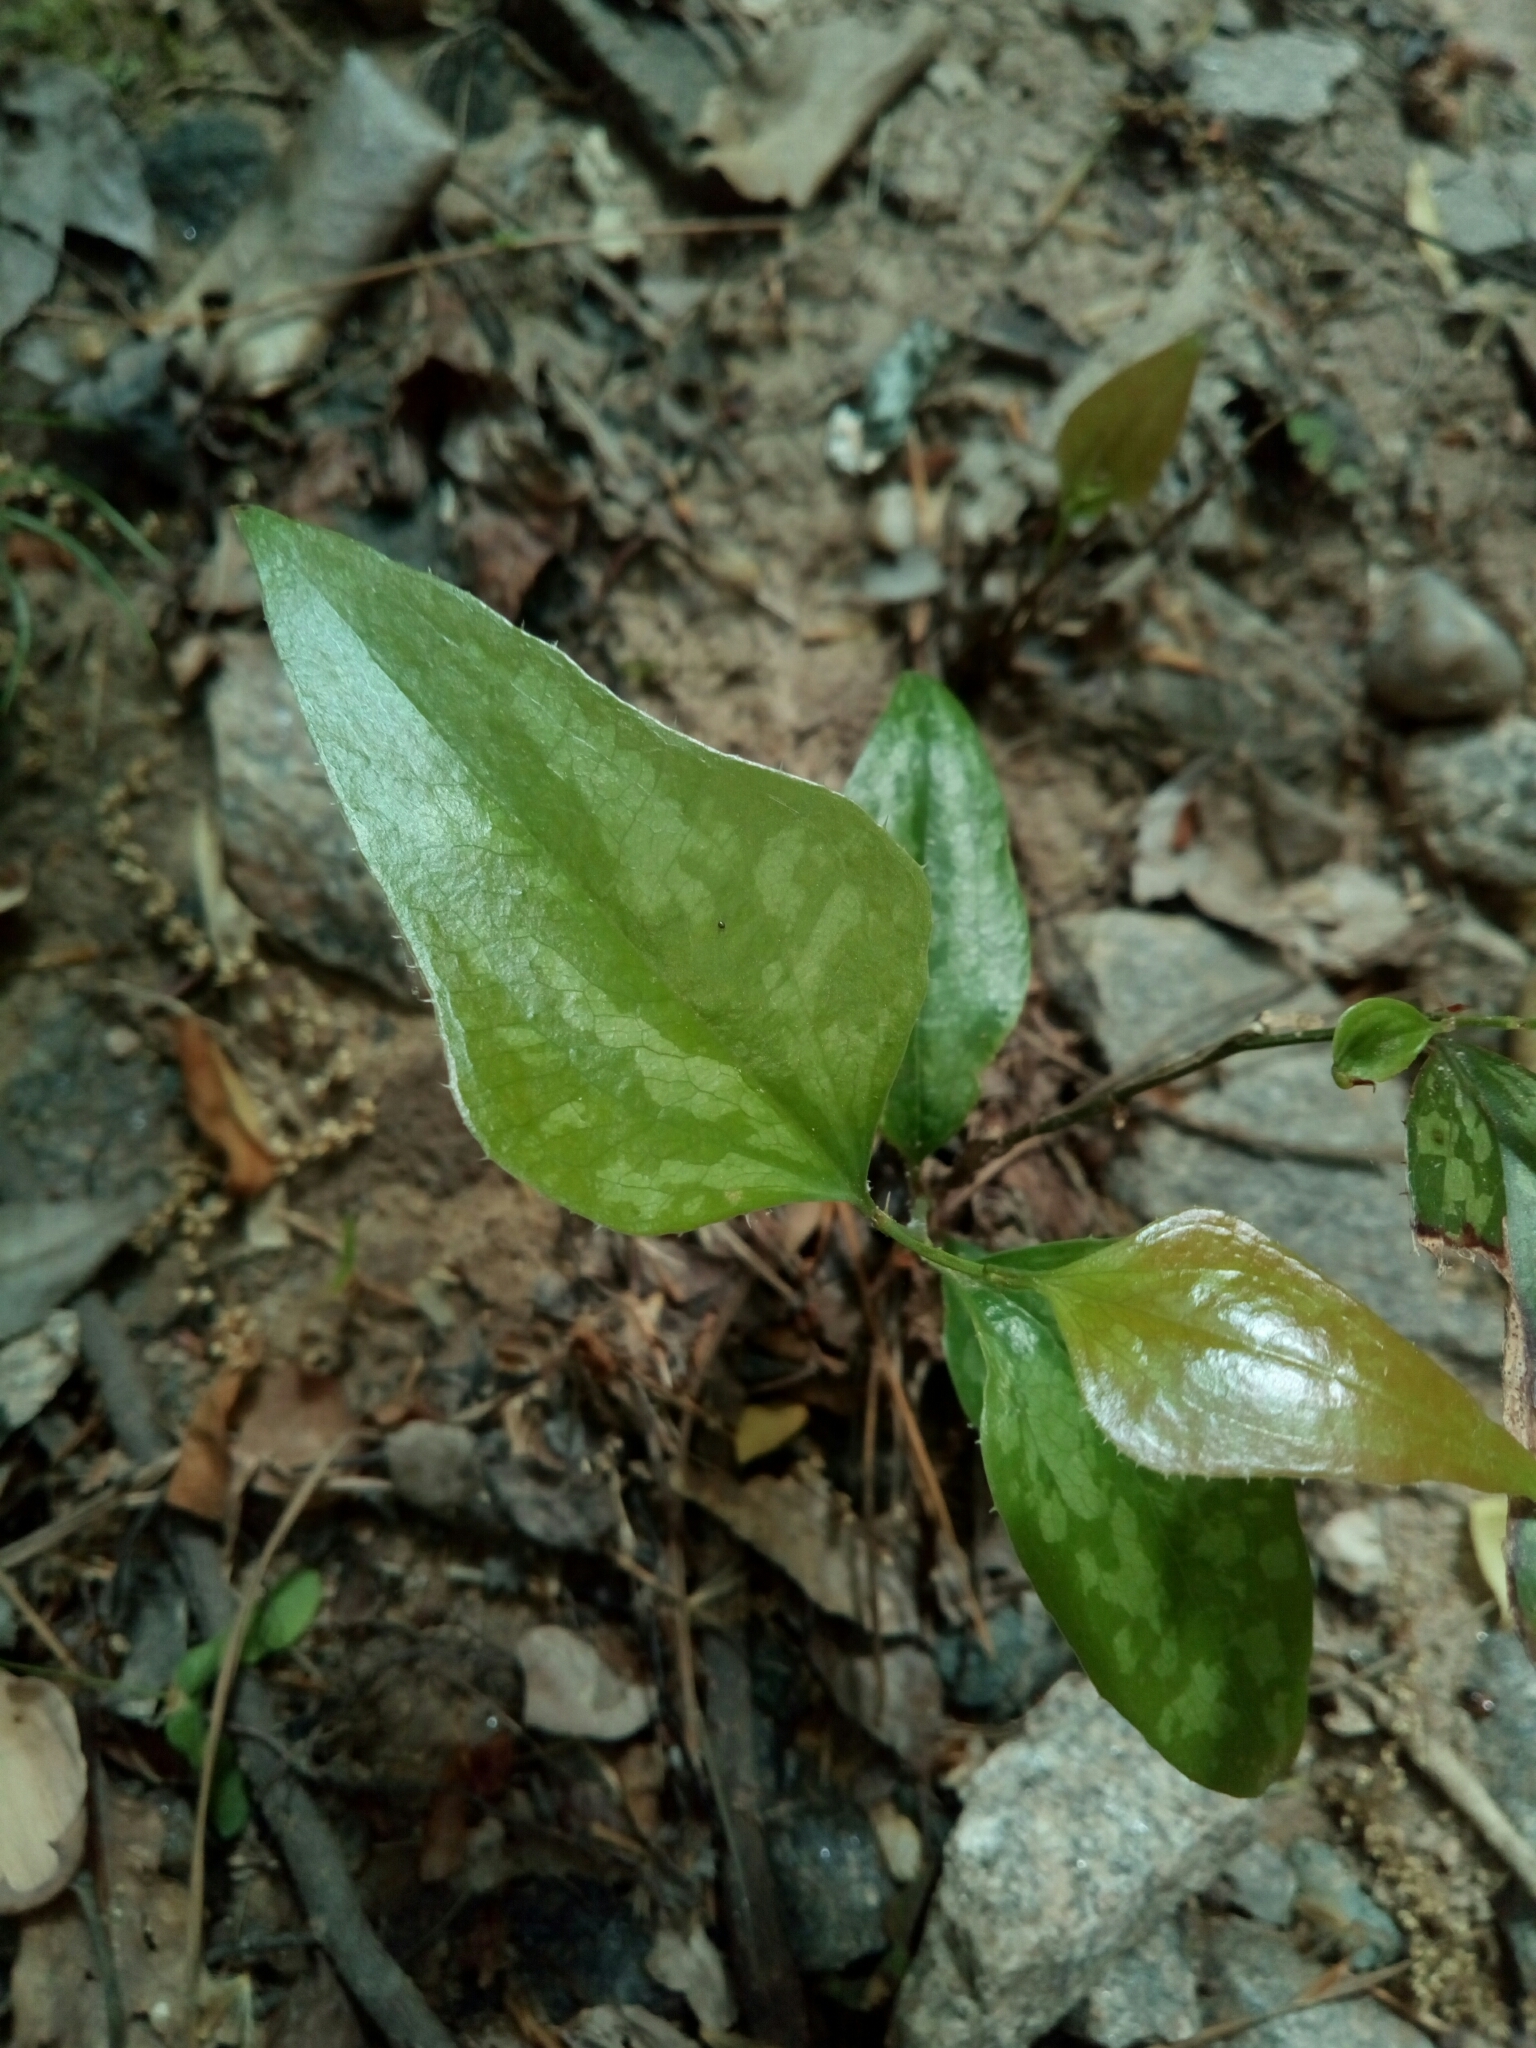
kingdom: Plantae
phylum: Tracheophyta
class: Liliopsida
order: Liliales
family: Smilacaceae
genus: Smilax
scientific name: Smilax bona-nox
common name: Catbrier
